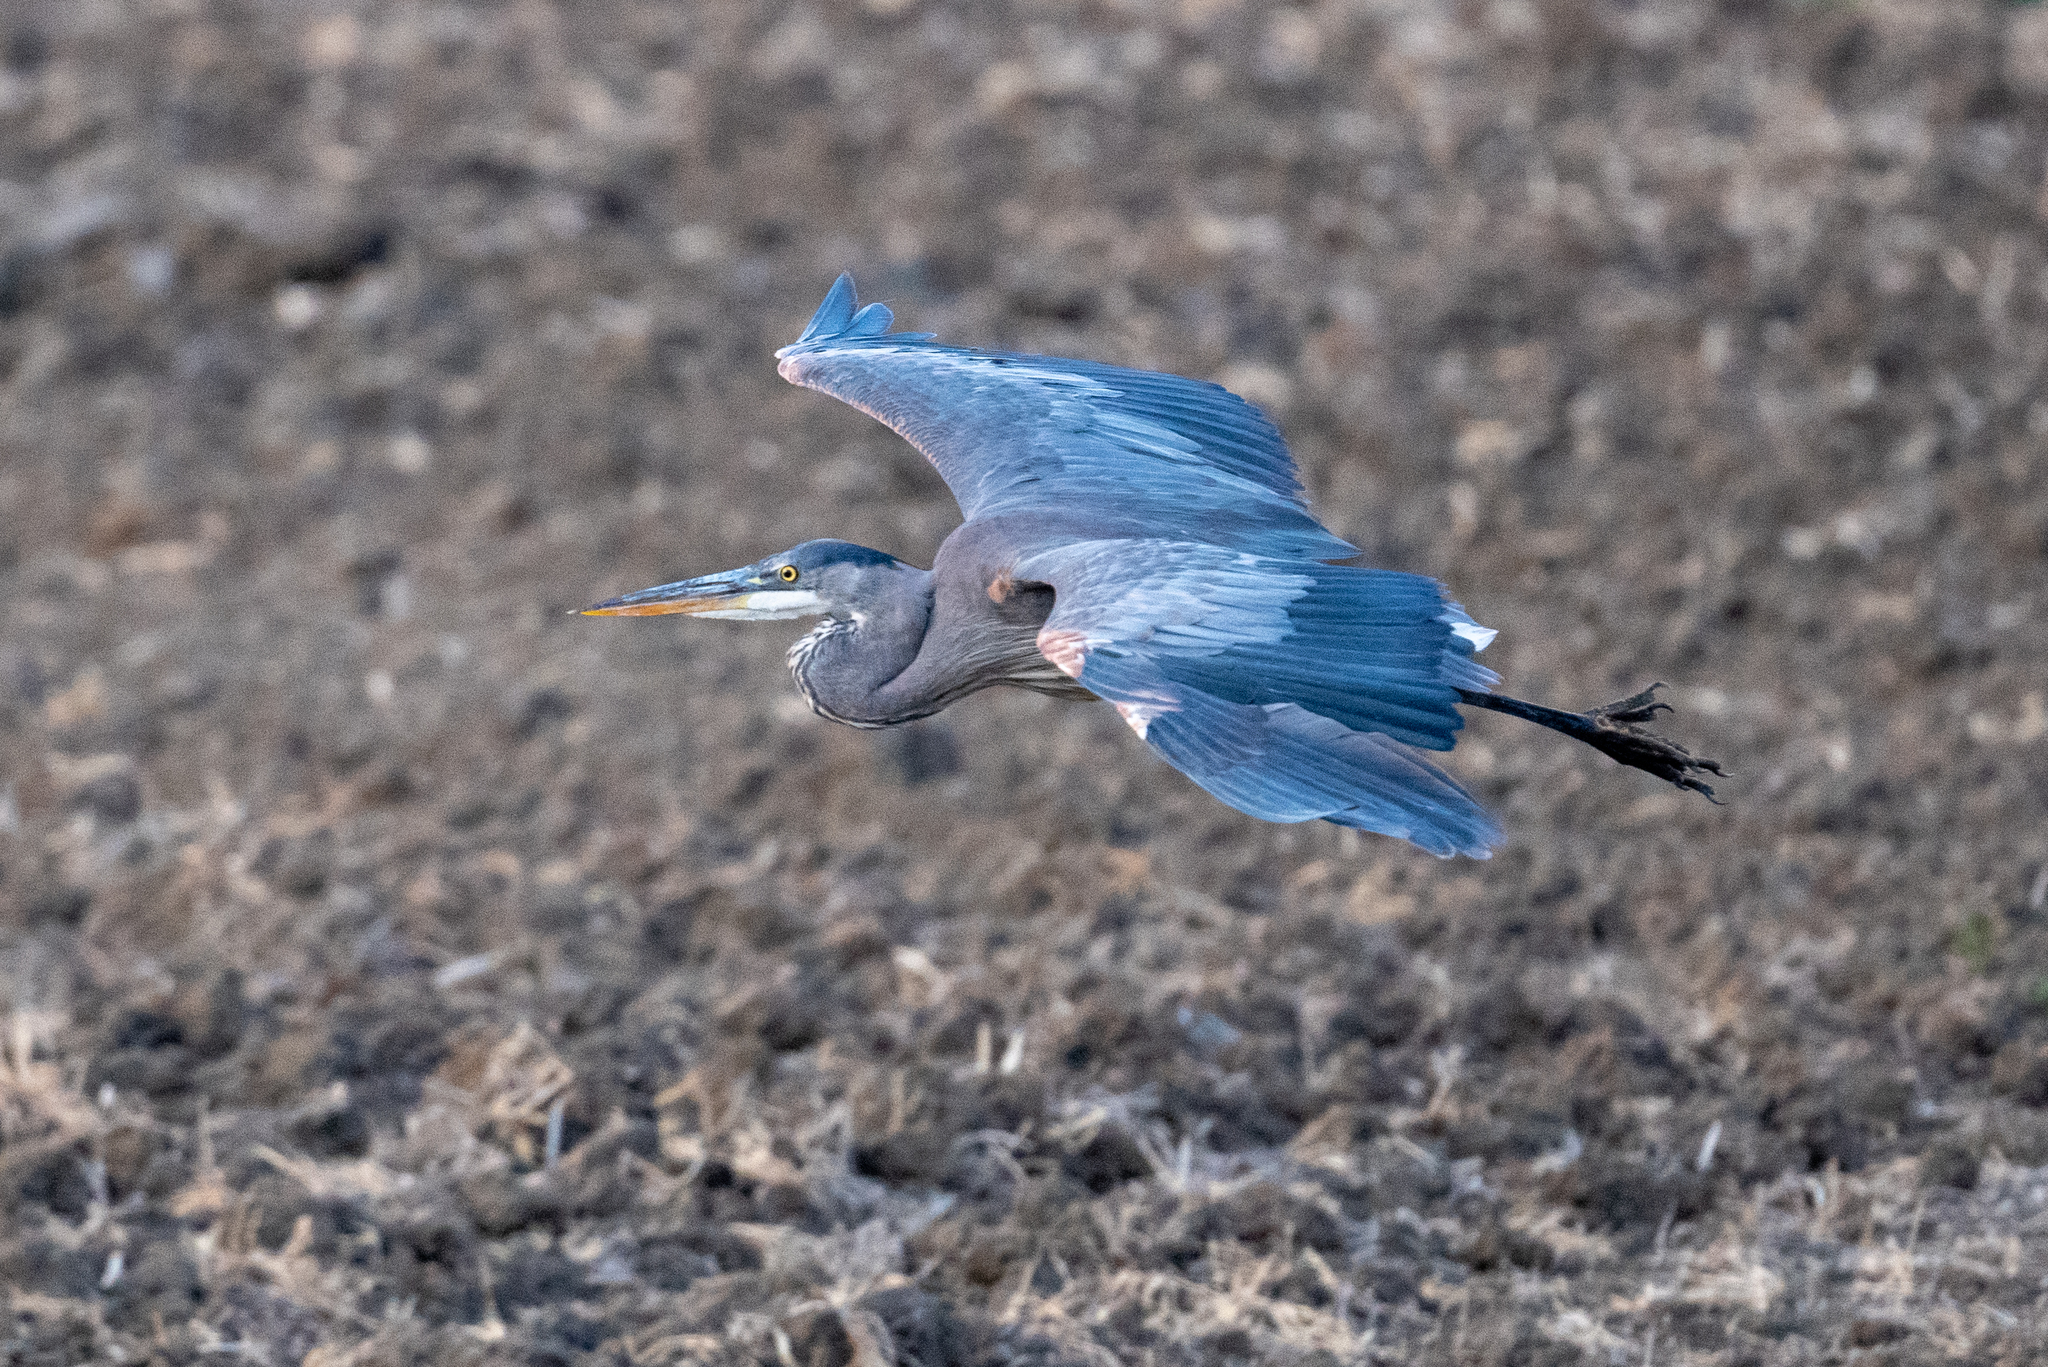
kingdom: Animalia
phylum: Chordata
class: Aves
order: Pelecaniformes
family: Ardeidae
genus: Ardea
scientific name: Ardea herodias
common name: Great blue heron
